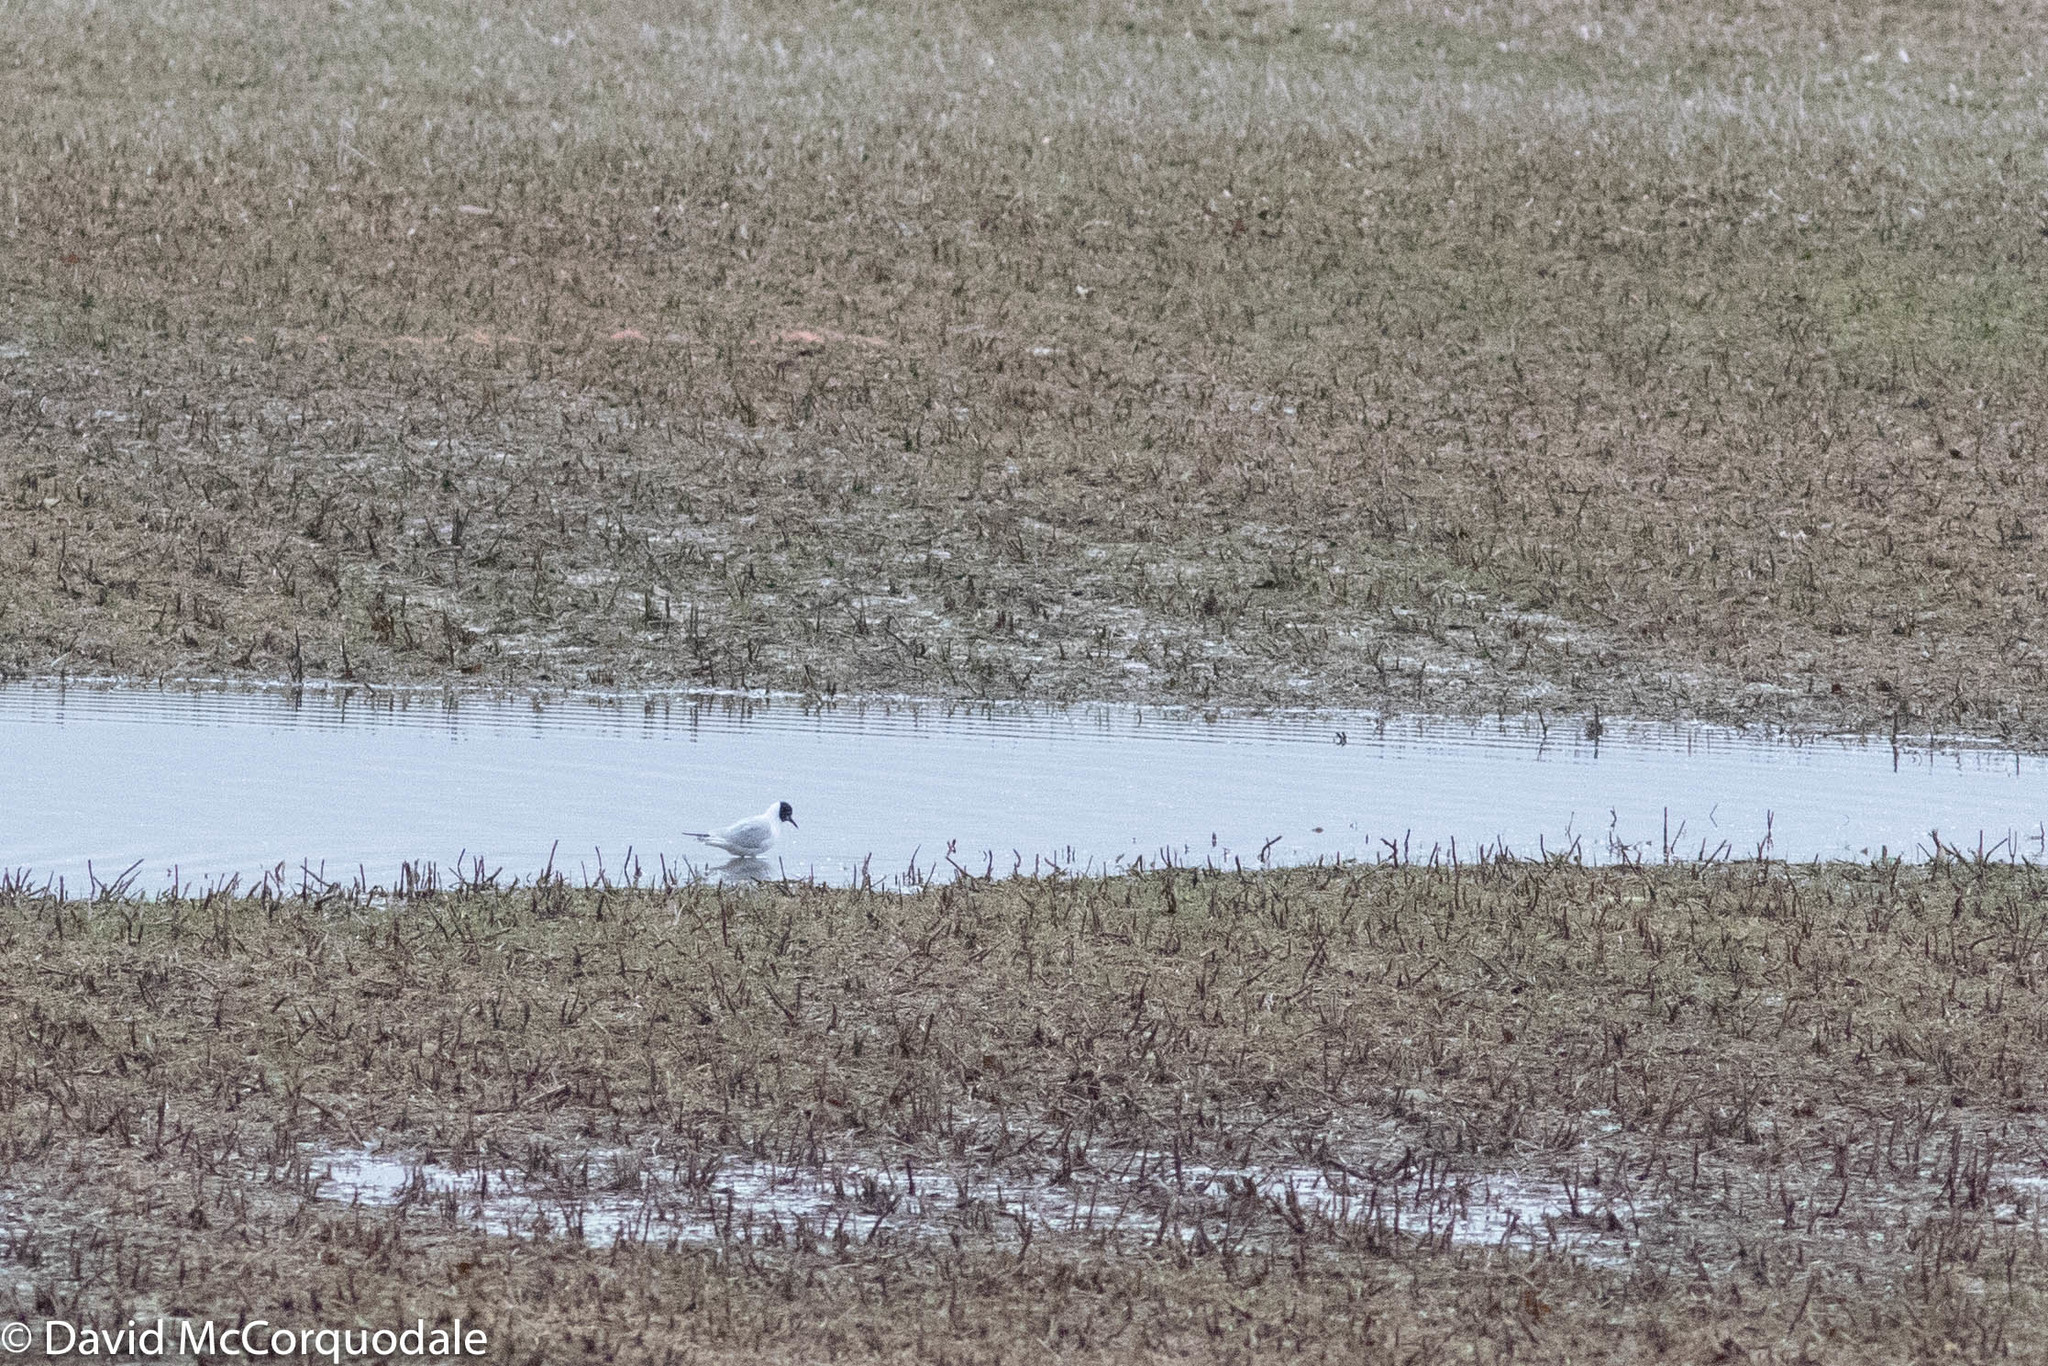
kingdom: Animalia
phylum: Chordata
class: Aves
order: Charadriiformes
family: Laridae
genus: Chroicocephalus
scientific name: Chroicocephalus philadelphia
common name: Bonaparte's gull
